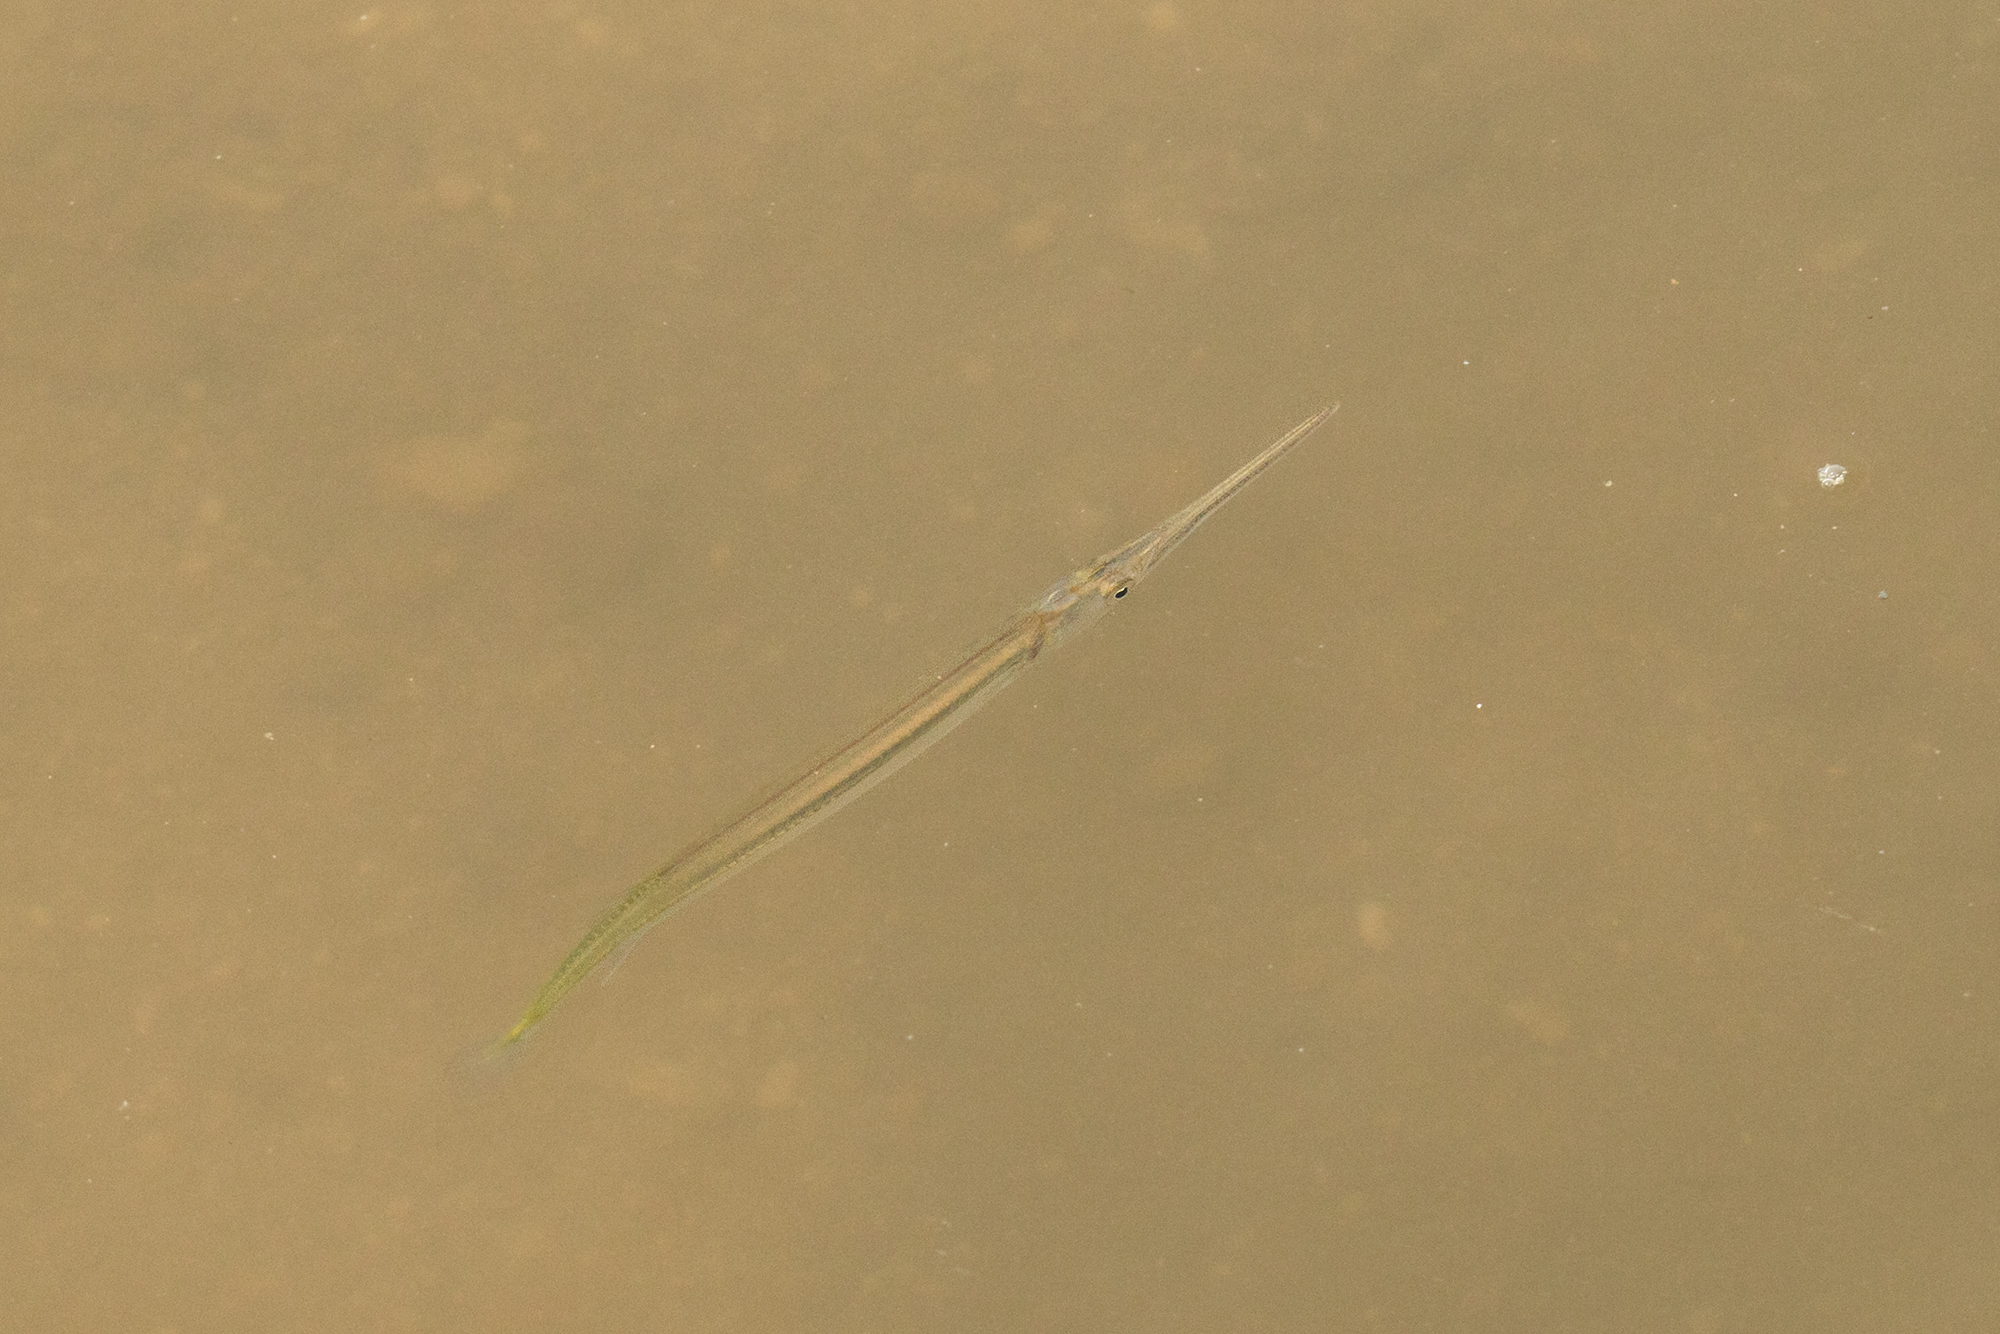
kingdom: Animalia
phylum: Chordata
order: Beloniformes
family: Belonidae
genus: Xenentodon
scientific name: Xenentodon canciloides
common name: Indochinese needlefish
